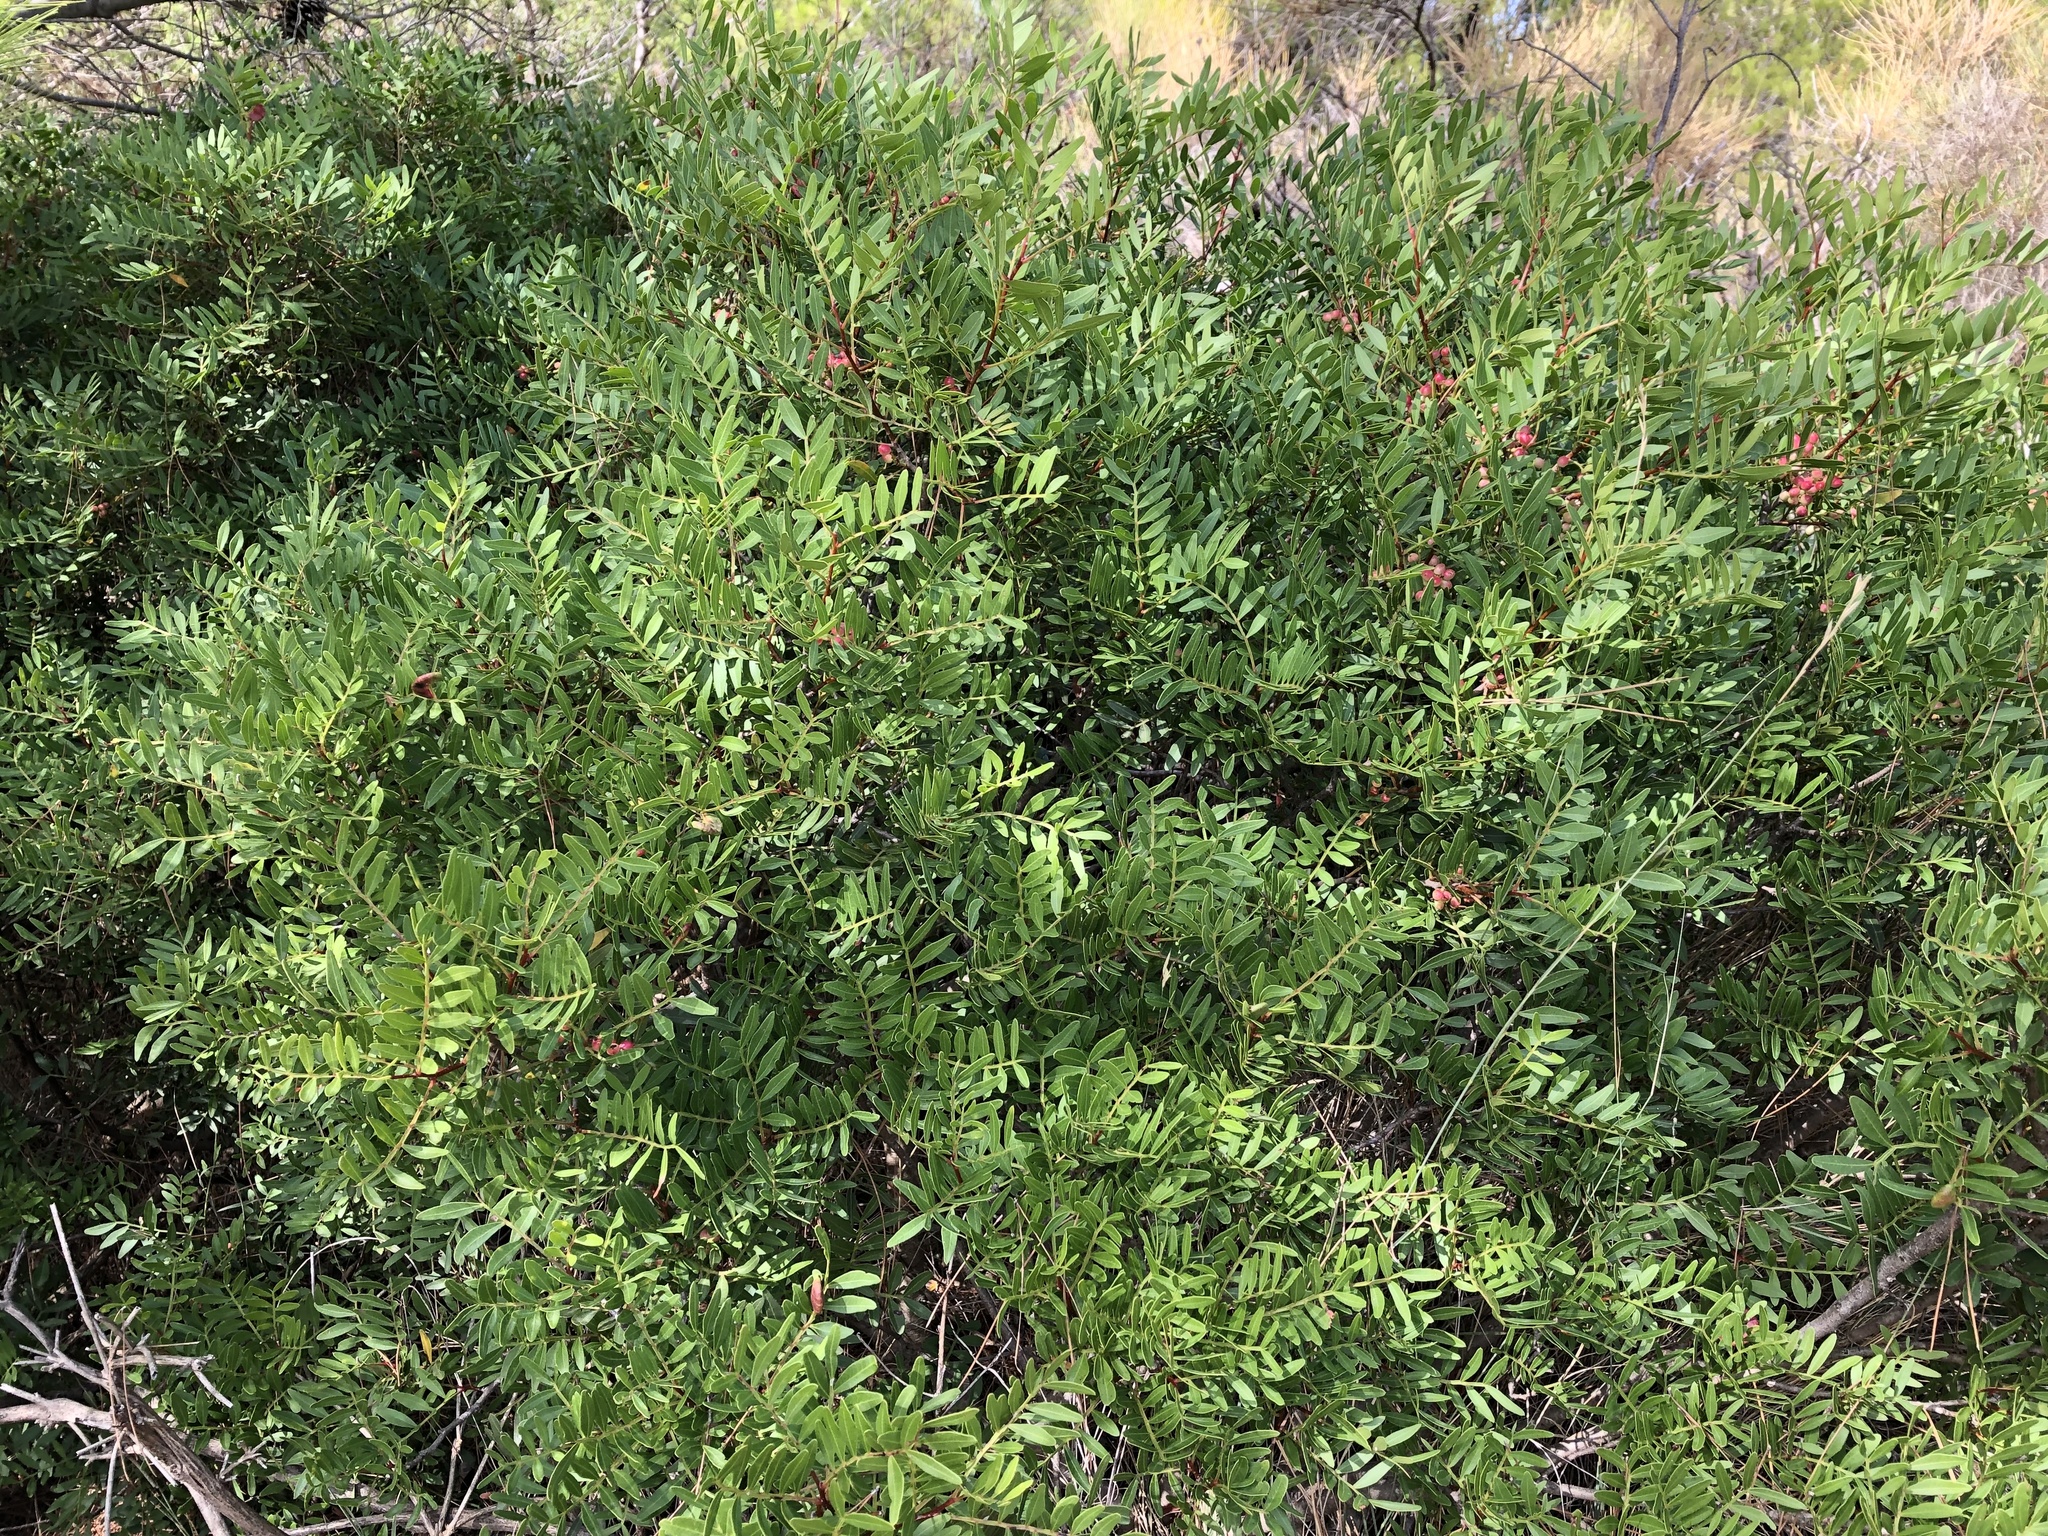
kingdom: Plantae
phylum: Tracheophyta
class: Magnoliopsida
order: Sapindales
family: Anacardiaceae
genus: Pistacia
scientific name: Pistacia lentiscus
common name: Lentisk
